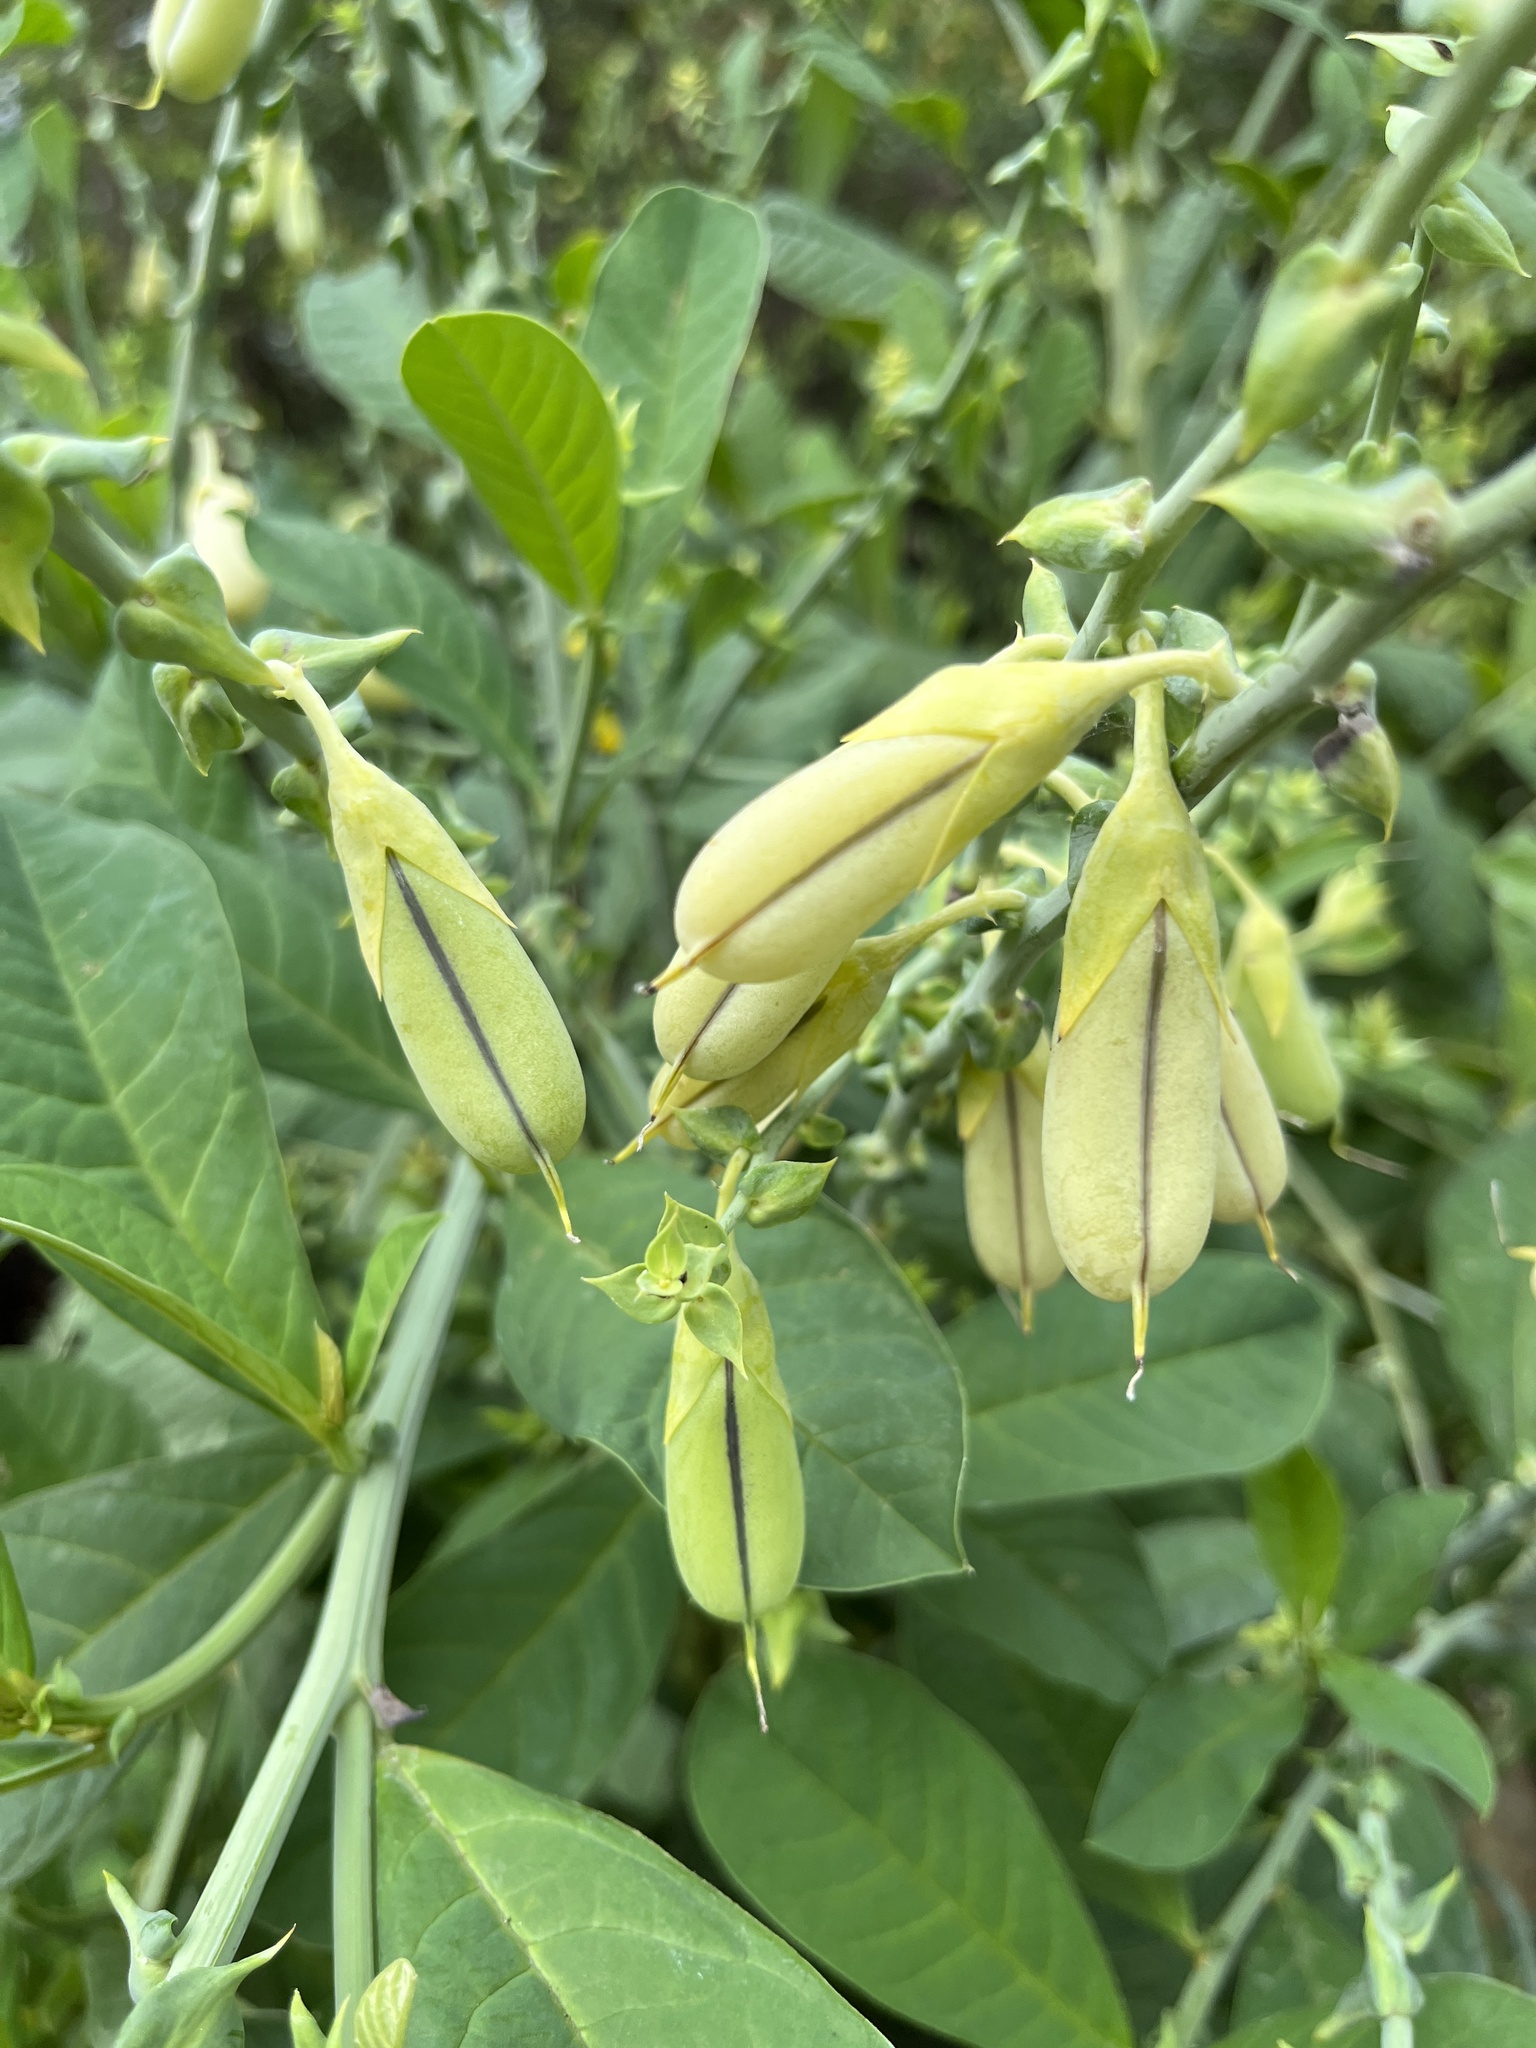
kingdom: Plantae
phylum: Tracheophyta
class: Magnoliopsida
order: Fabales
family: Fabaceae
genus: Crotalaria
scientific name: Crotalaria juncea
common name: Sunn hemp
